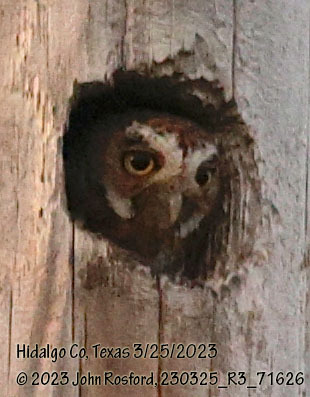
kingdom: Animalia
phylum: Chordata
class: Aves
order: Strigiformes
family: Strigidae
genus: Micrathene
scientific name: Micrathene whitneyi
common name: Elf owl
